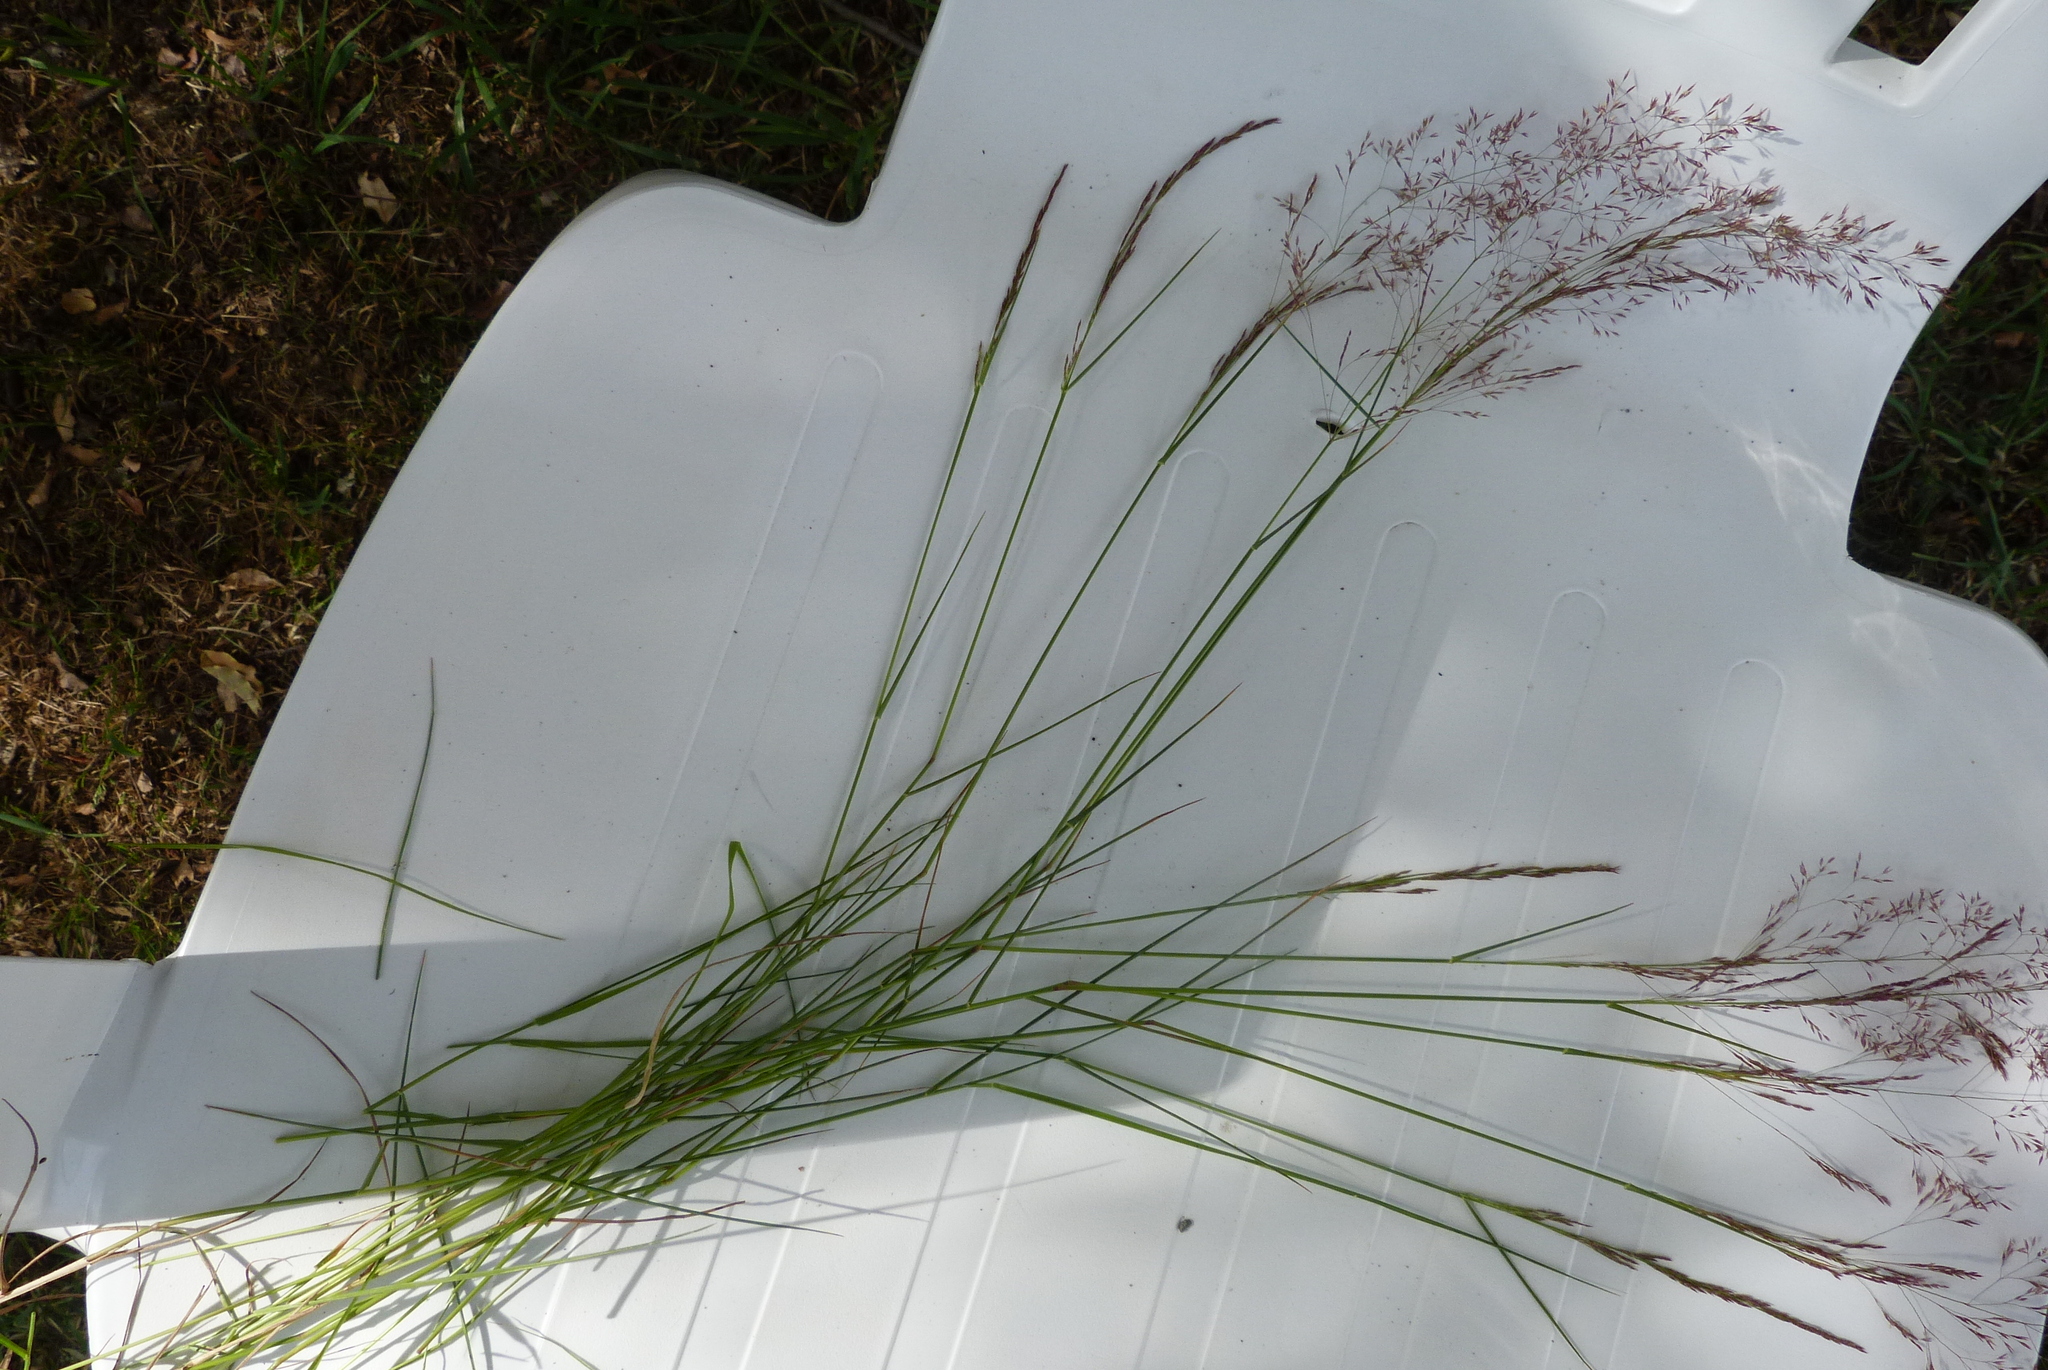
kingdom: Plantae
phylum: Tracheophyta
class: Liliopsida
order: Poales
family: Poaceae
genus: Agrostis
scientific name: Agrostis capillaris
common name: Colonial bentgrass
